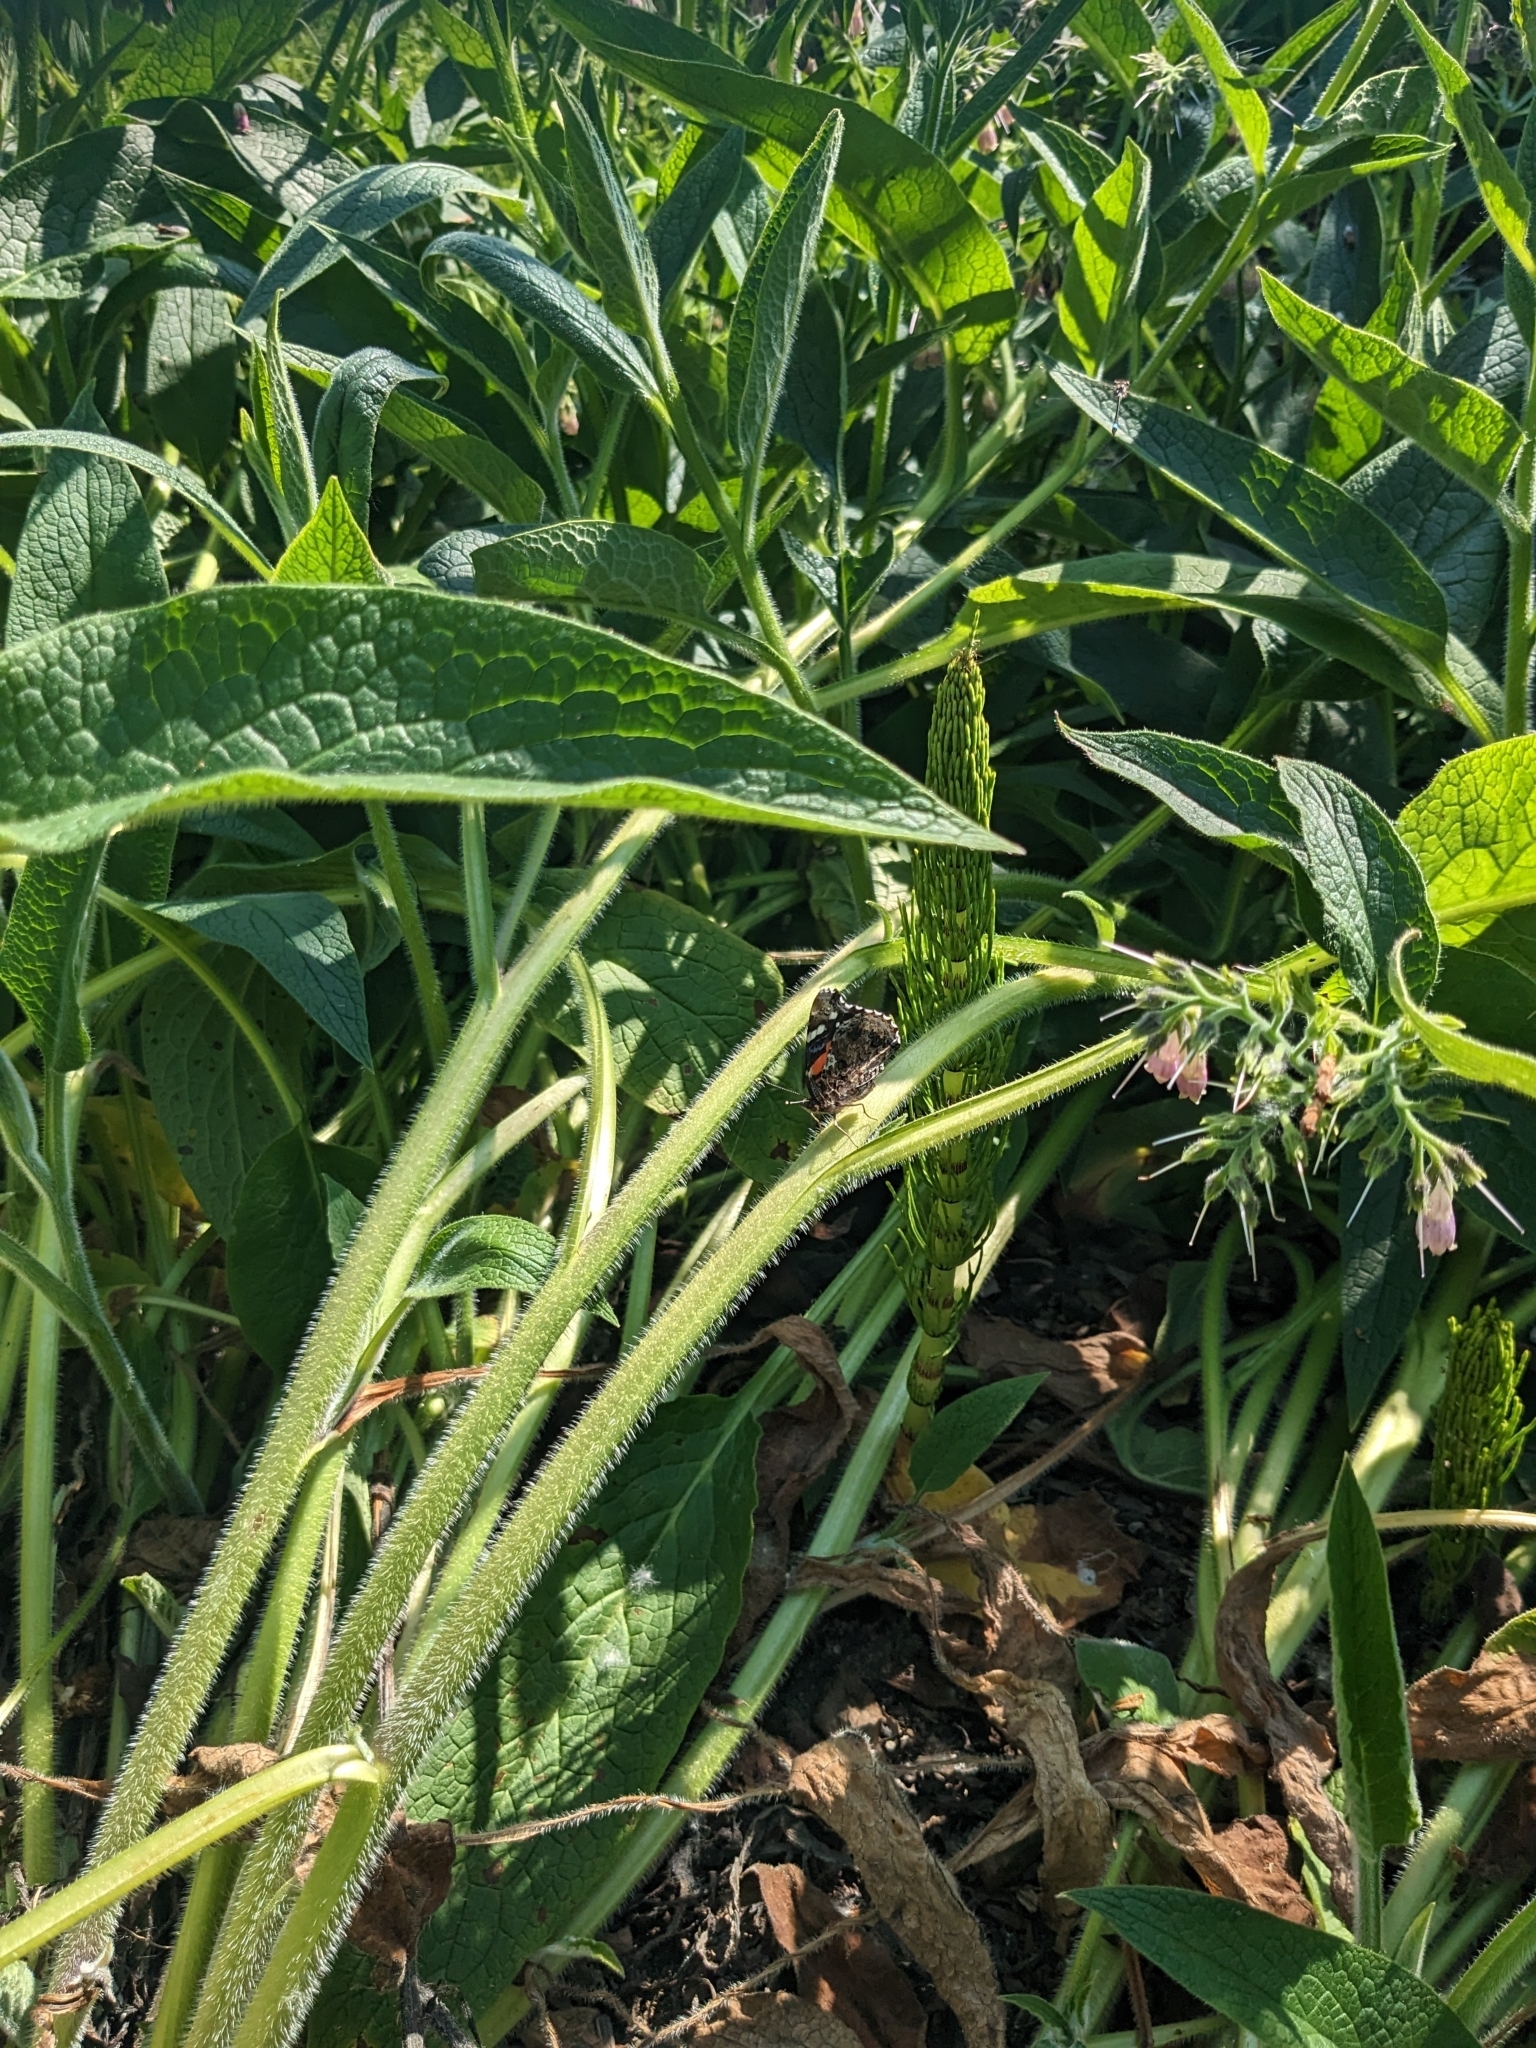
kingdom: Animalia
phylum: Arthropoda
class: Insecta
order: Lepidoptera
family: Nymphalidae
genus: Vanessa
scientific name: Vanessa atalanta
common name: Red admiral
